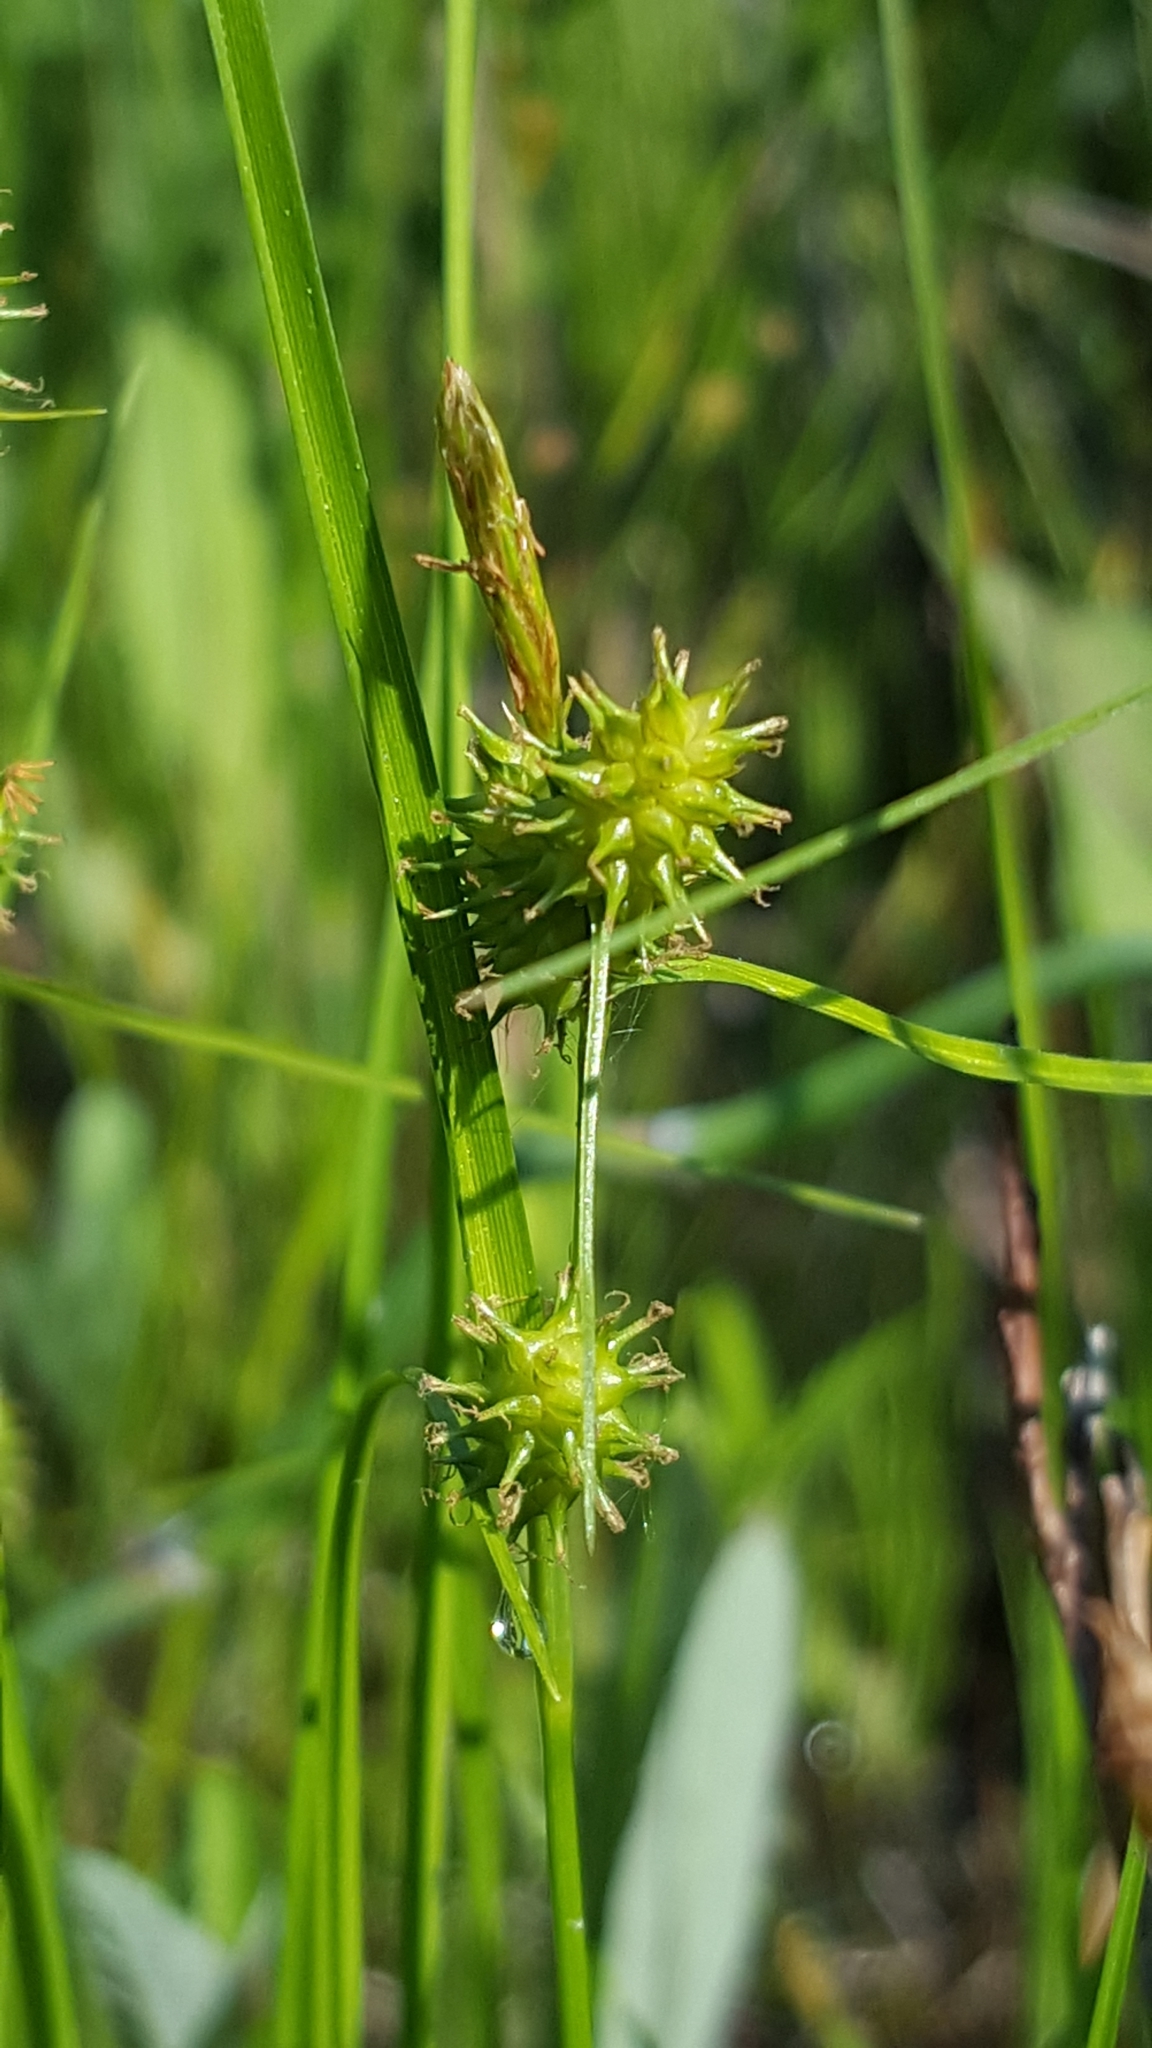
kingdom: Plantae
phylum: Tracheophyta
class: Liliopsida
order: Poales
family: Cyperaceae
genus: Carex
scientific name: Carex cryptolepis
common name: Northeastern sedge
